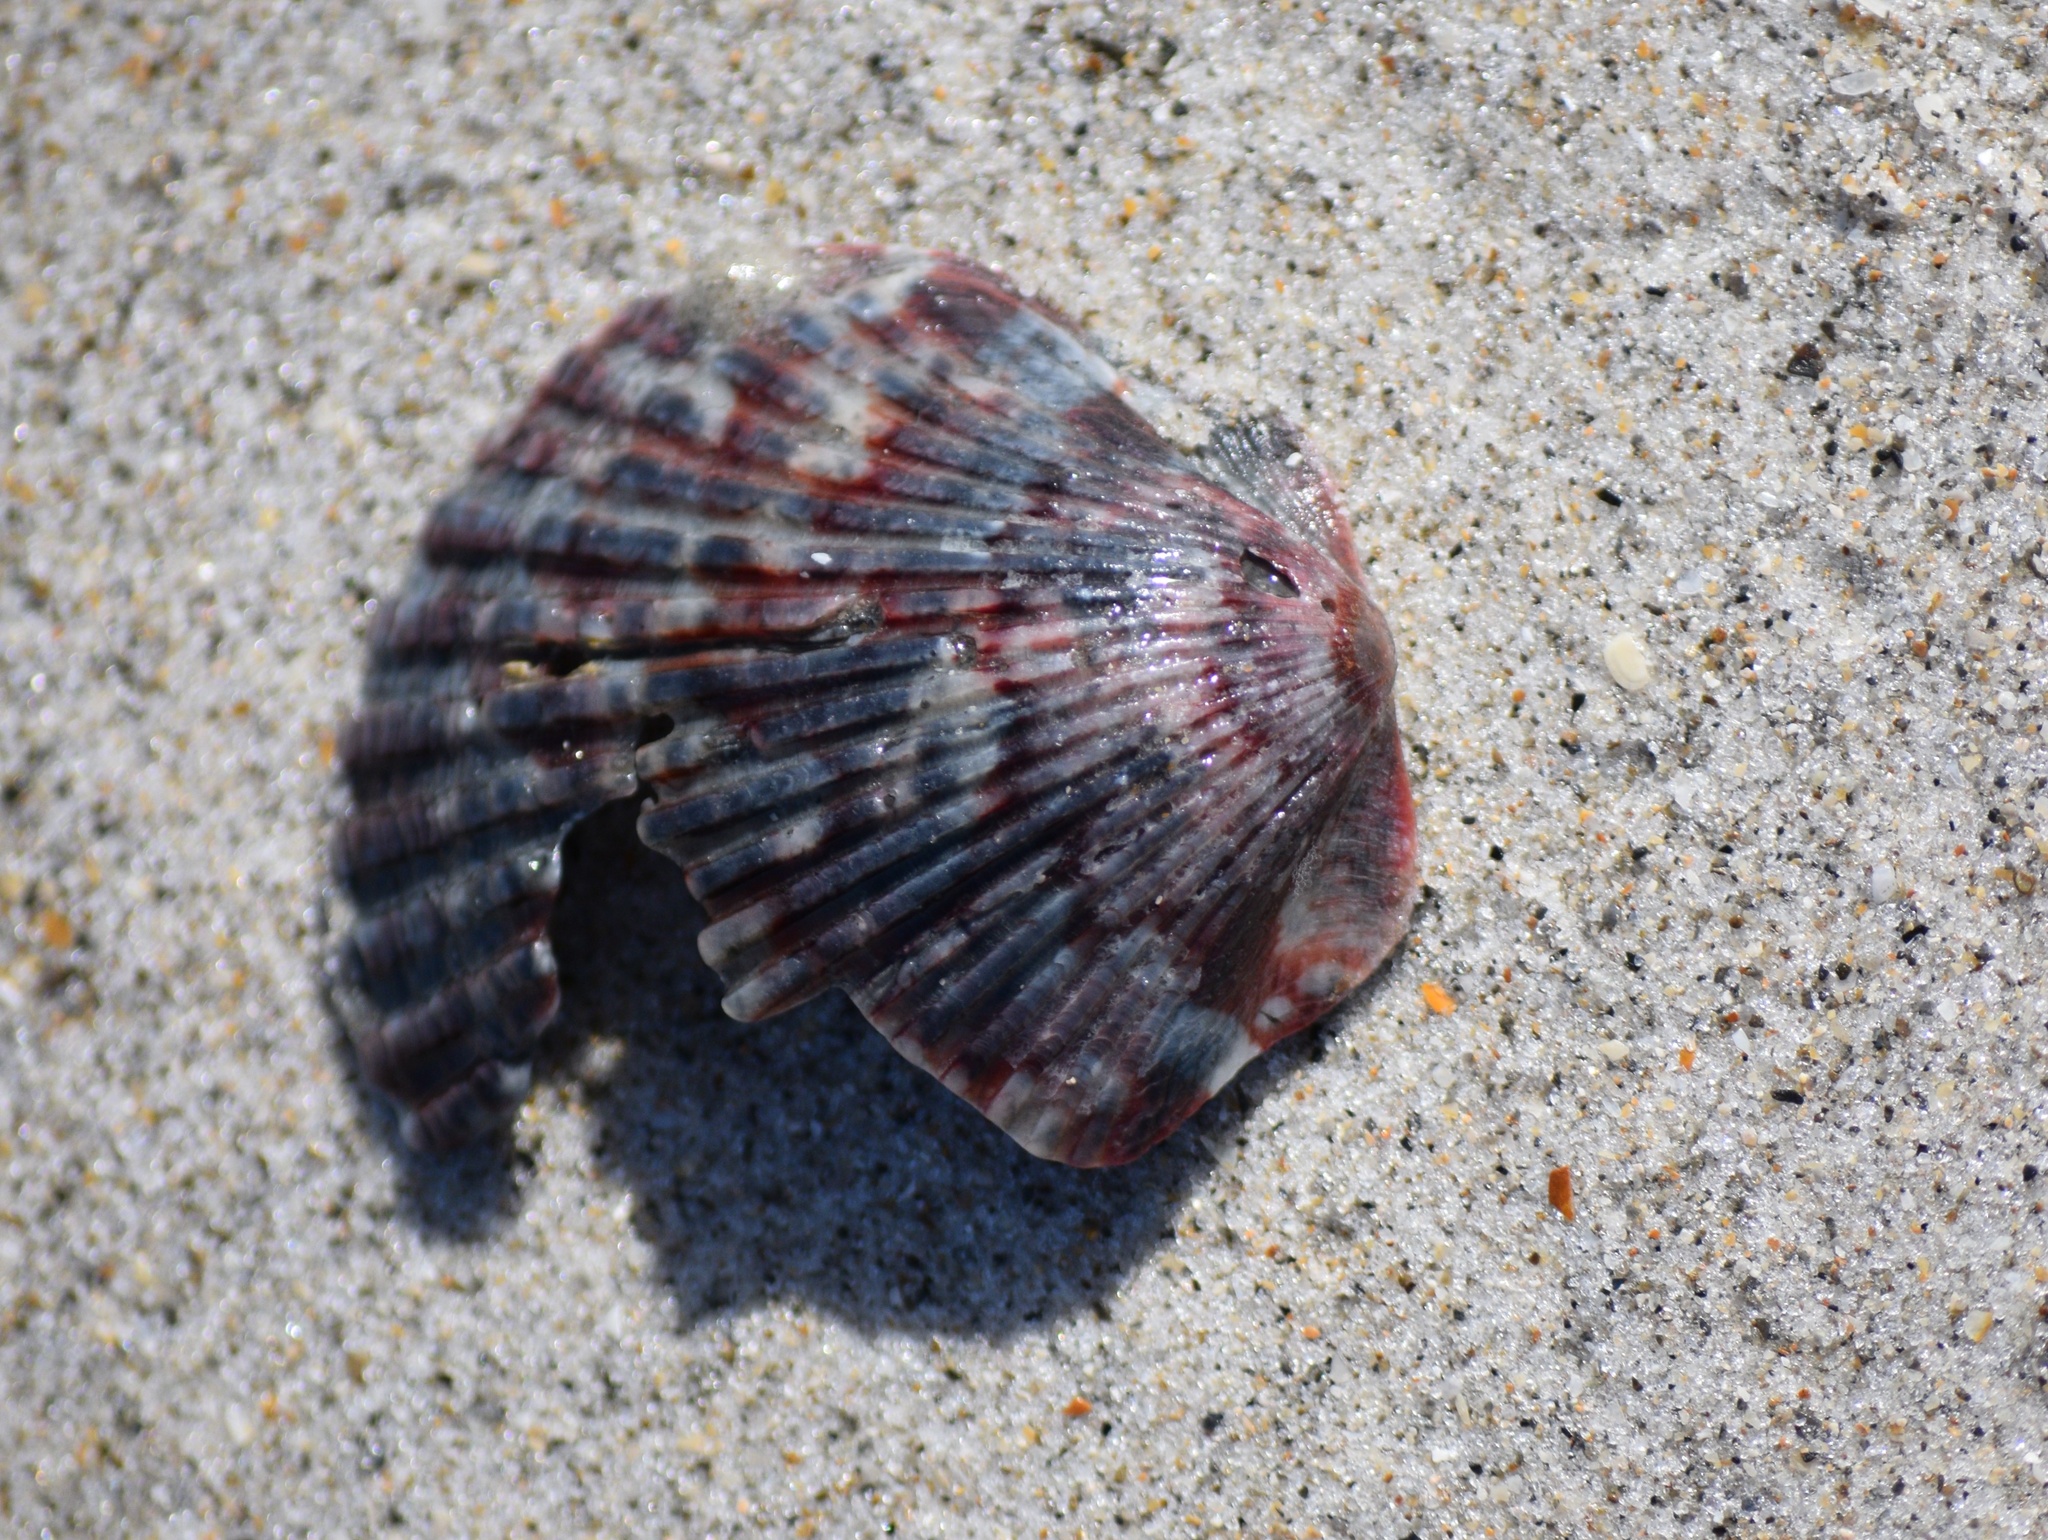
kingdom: Animalia
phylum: Mollusca
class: Bivalvia
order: Pectinida
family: Pectinidae
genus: Argopecten
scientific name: Argopecten gibbus
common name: Atlantic calico scallop
